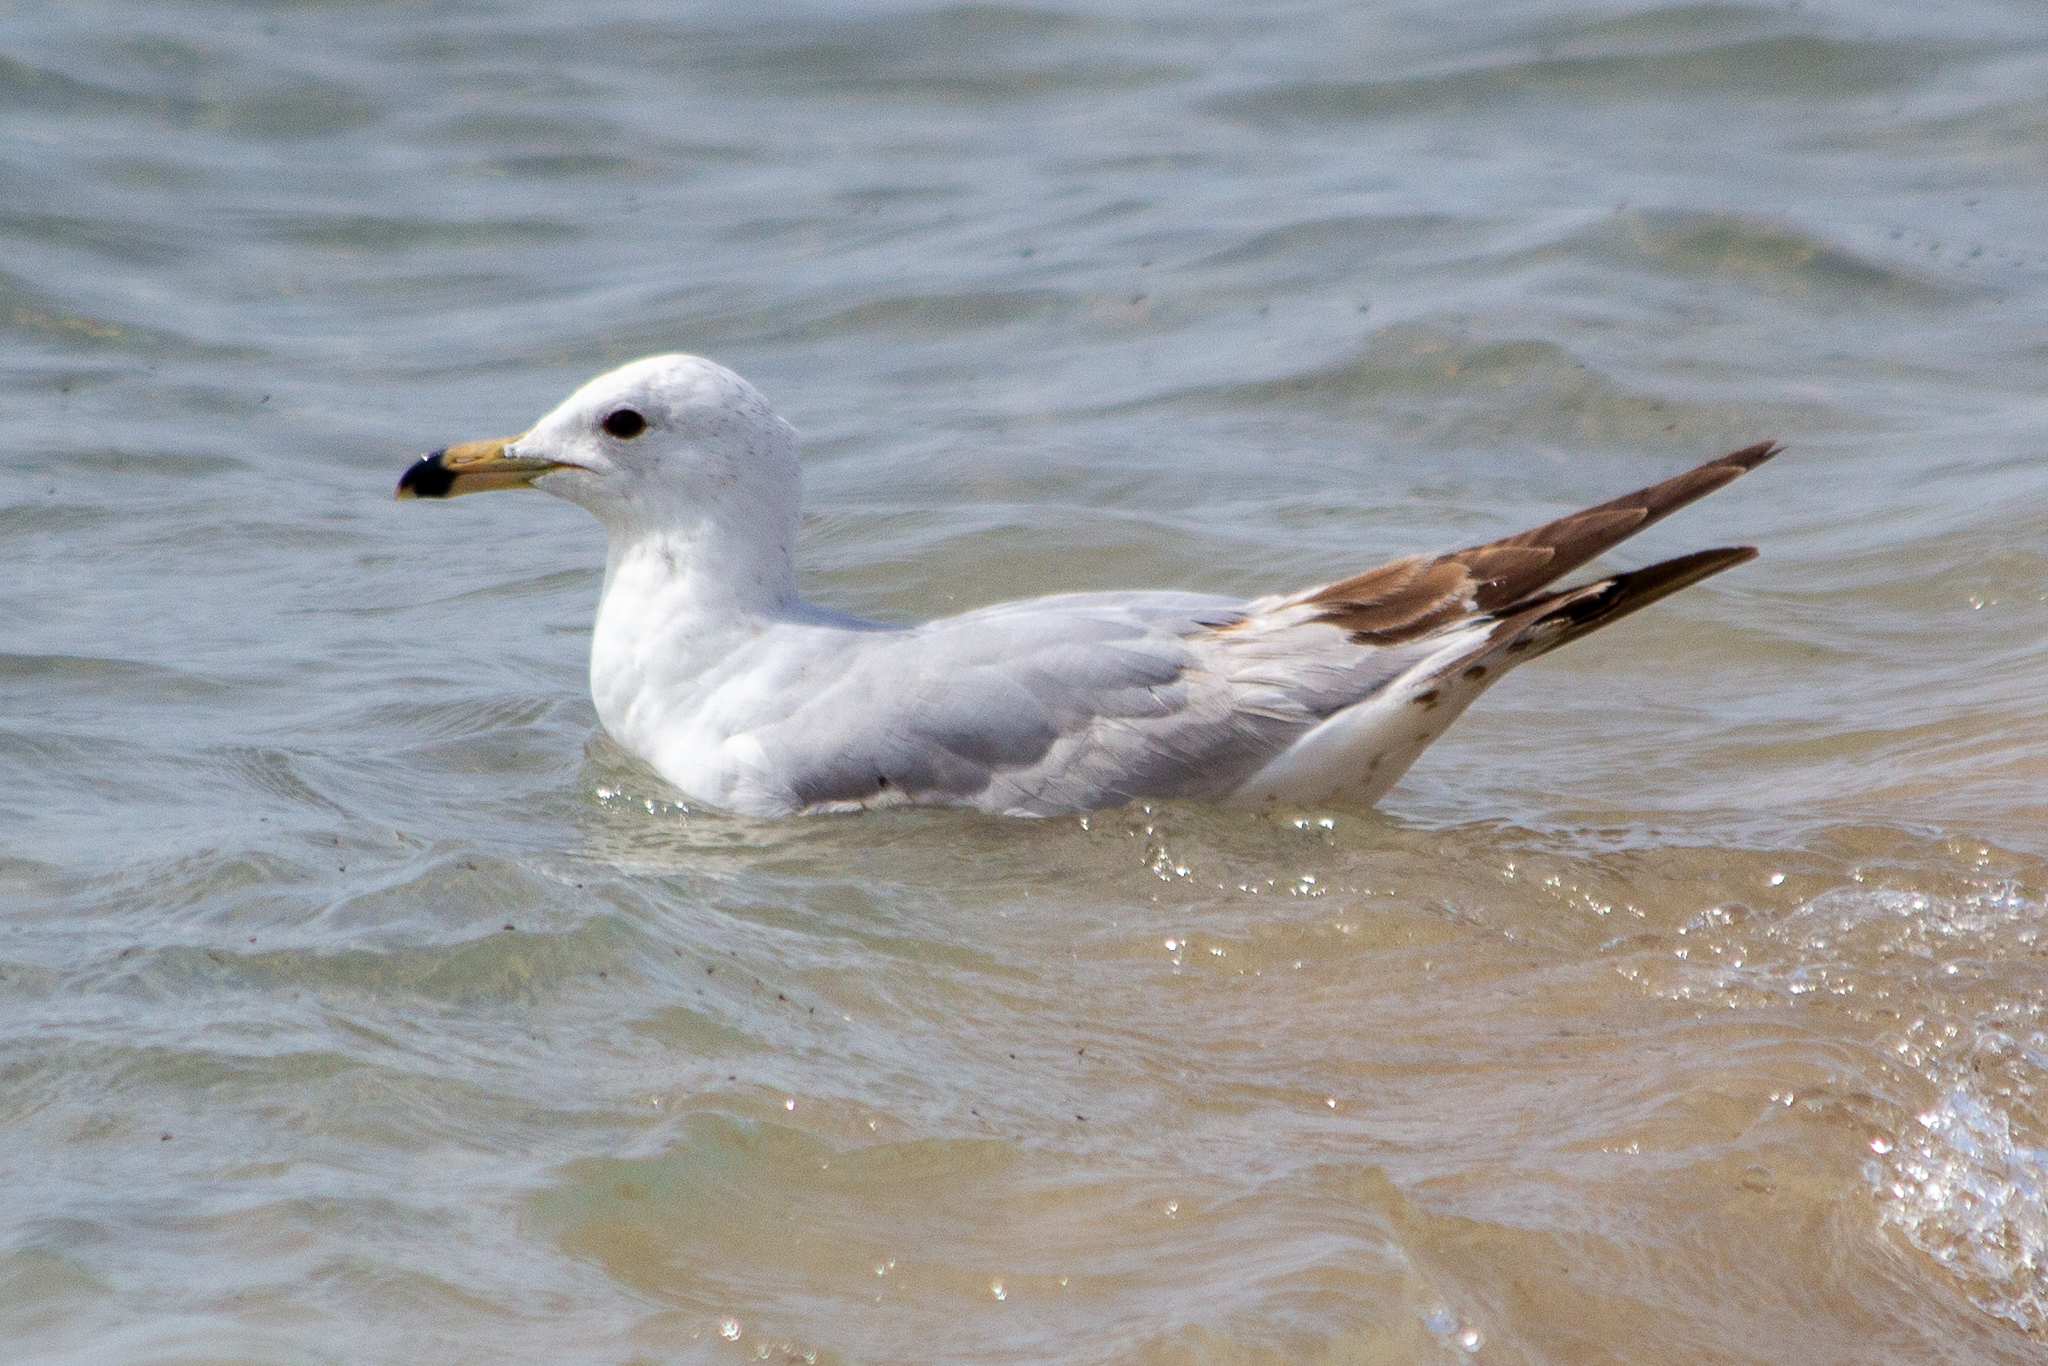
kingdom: Animalia
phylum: Chordata
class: Aves
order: Charadriiformes
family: Laridae
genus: Larus
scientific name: Larus delawarensis
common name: Ring-billed gull
